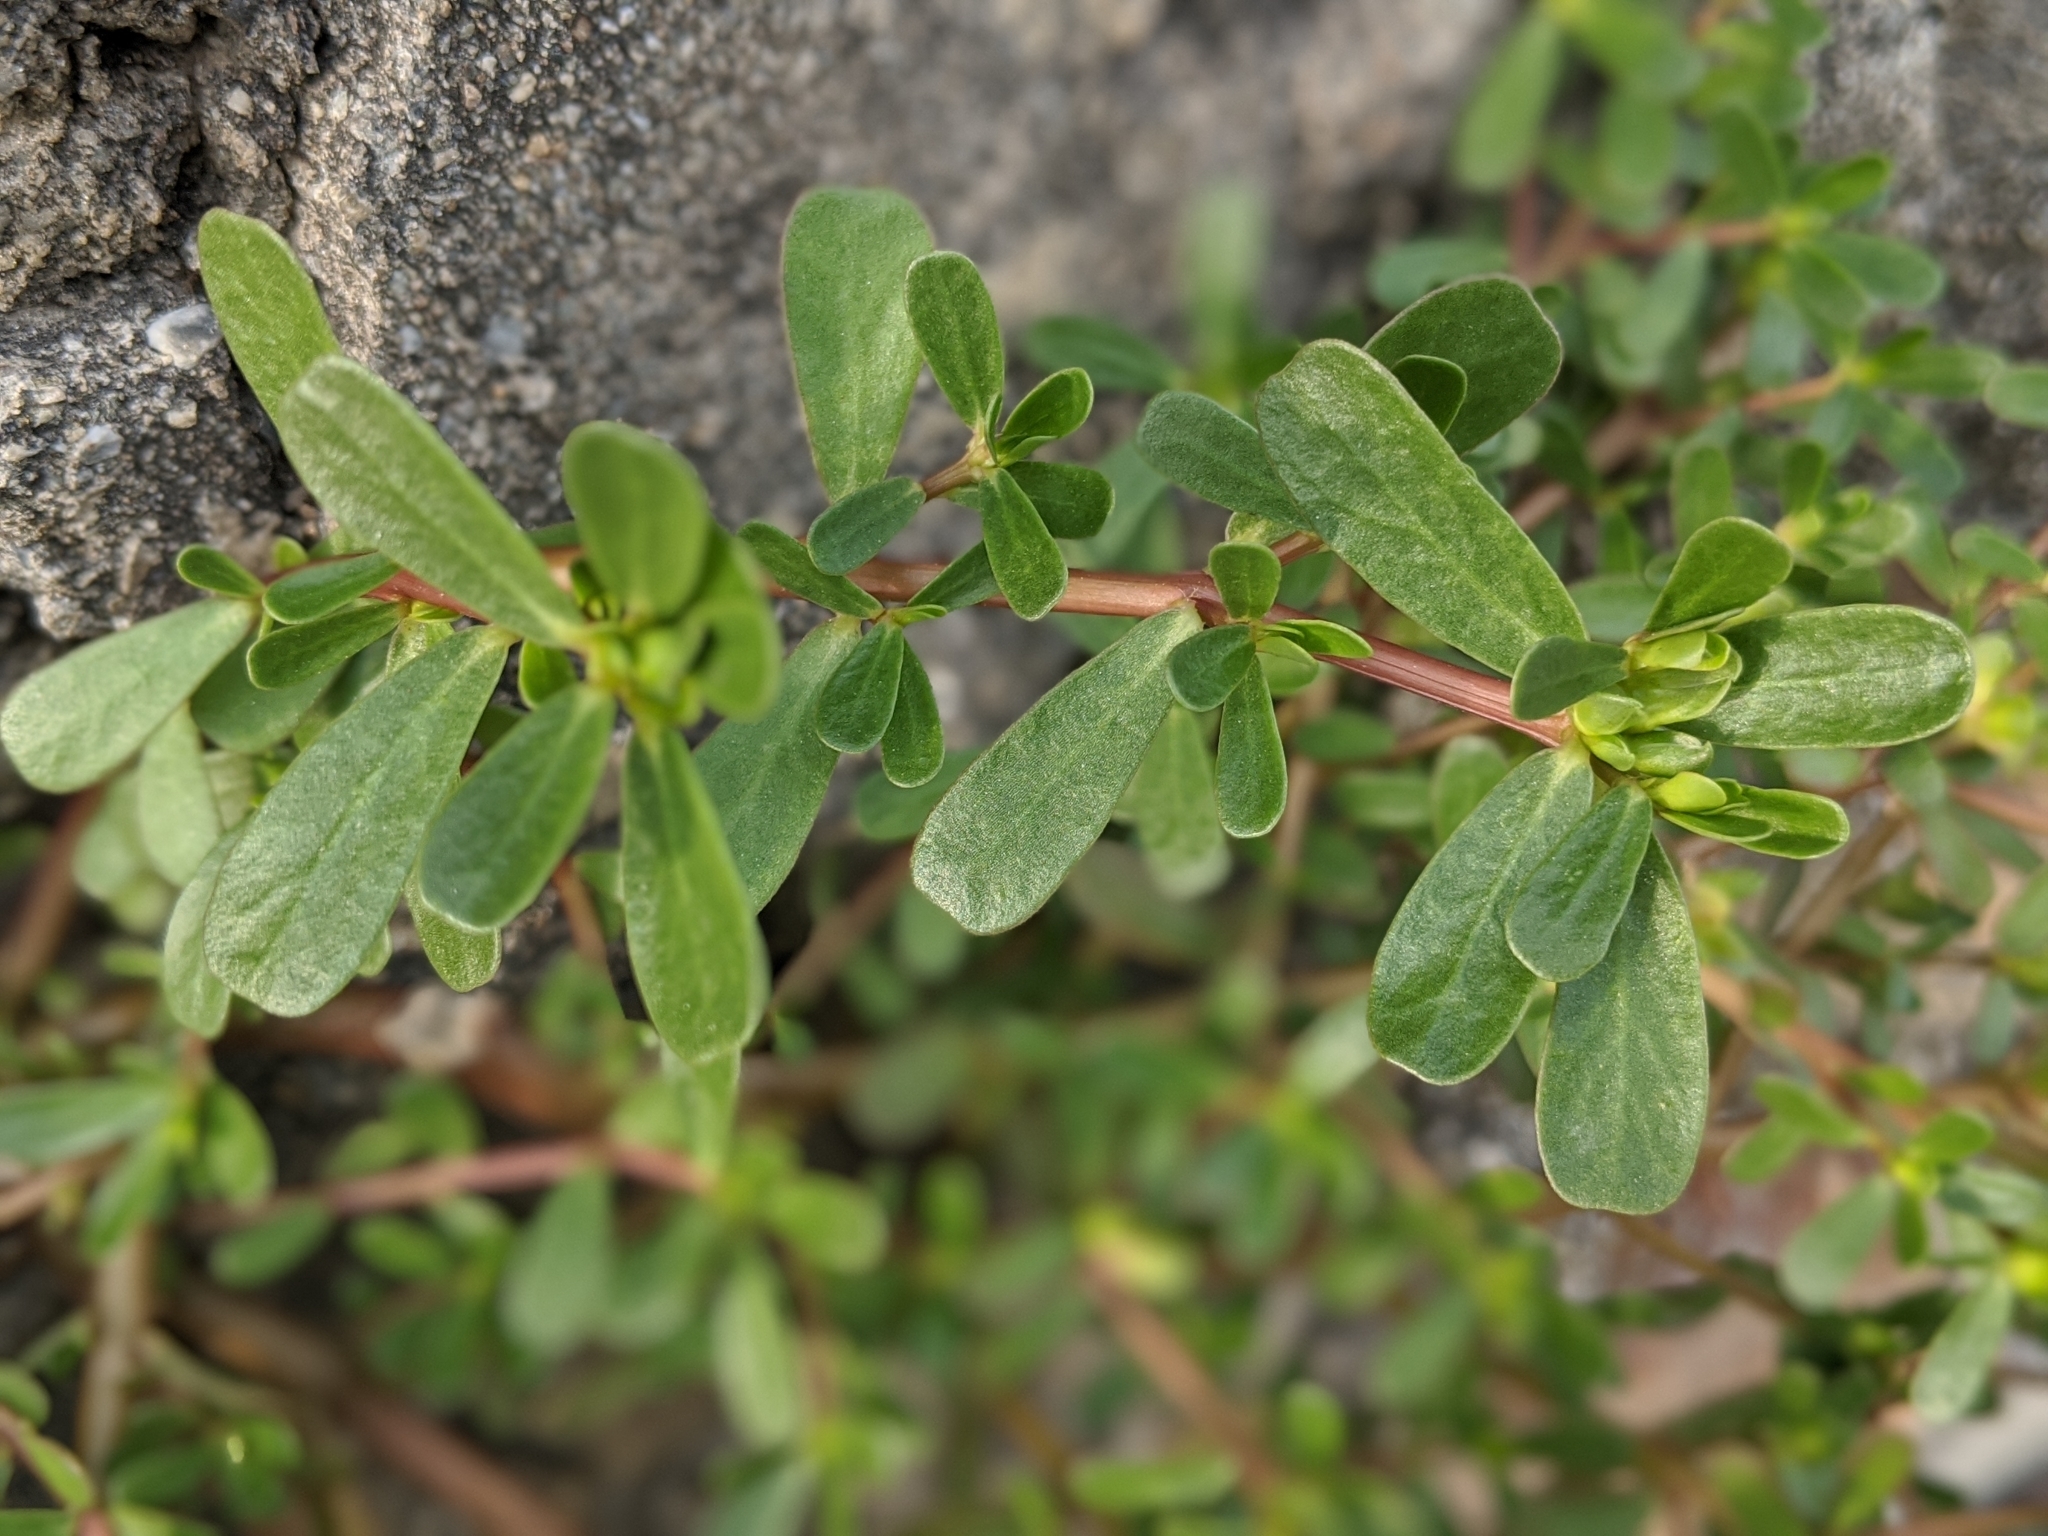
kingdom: Plantae
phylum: Tracheophyta
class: Magnoliopsida
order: Caryophyllales
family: Portulacaceae
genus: Portulaca
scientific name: Portulaca oleracea
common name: Common purslane
